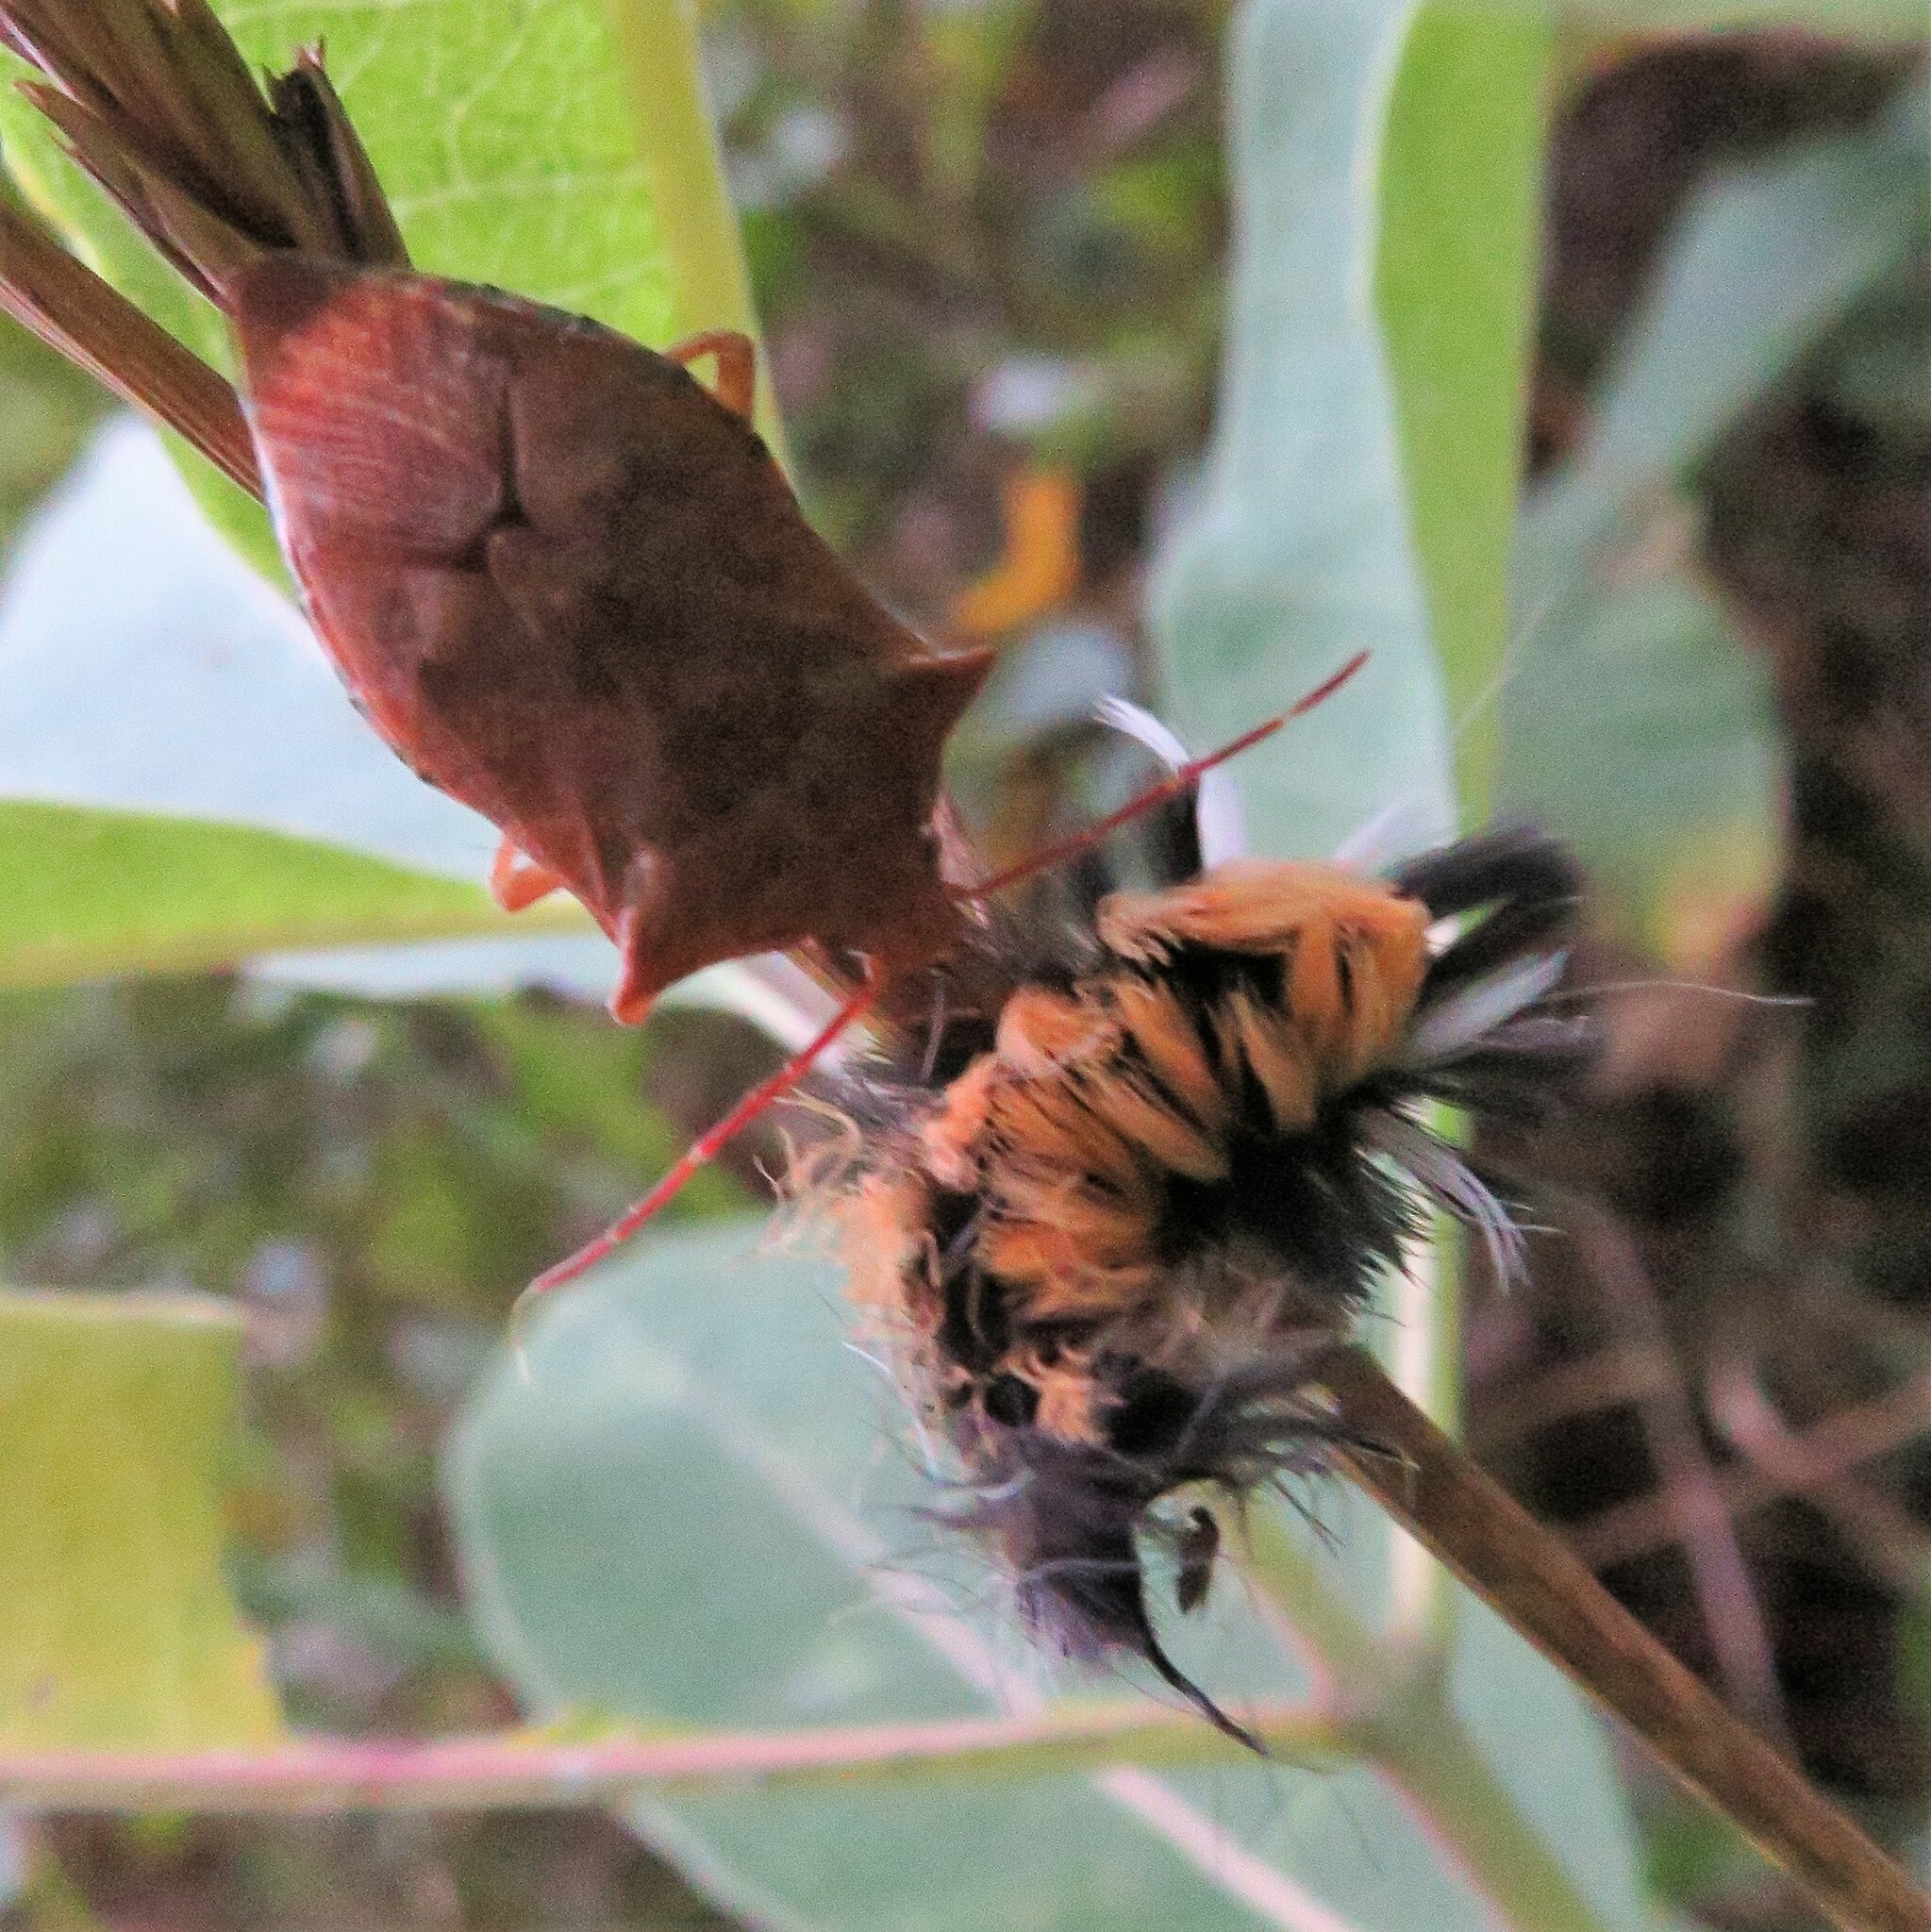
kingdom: Animalia
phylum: Arthropoda
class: Insecta
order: Lepidoptera
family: Erebidae
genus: Euchaetes
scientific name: Euchaetes egle
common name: Milkweed tussock moth
